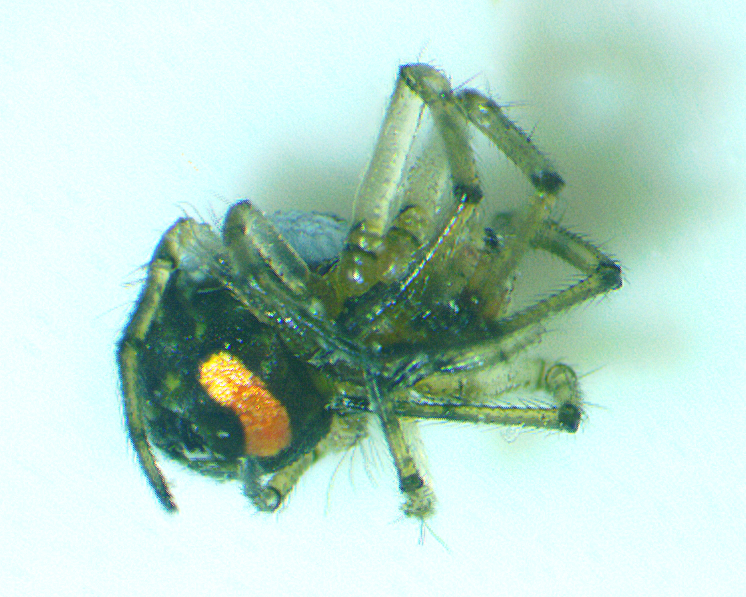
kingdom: Animalia
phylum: Arthropoda
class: Arachnida
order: Araneae
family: Tetragnathidae
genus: Leucauge
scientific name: Leucauge venusta
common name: Longjawed orb weavers
